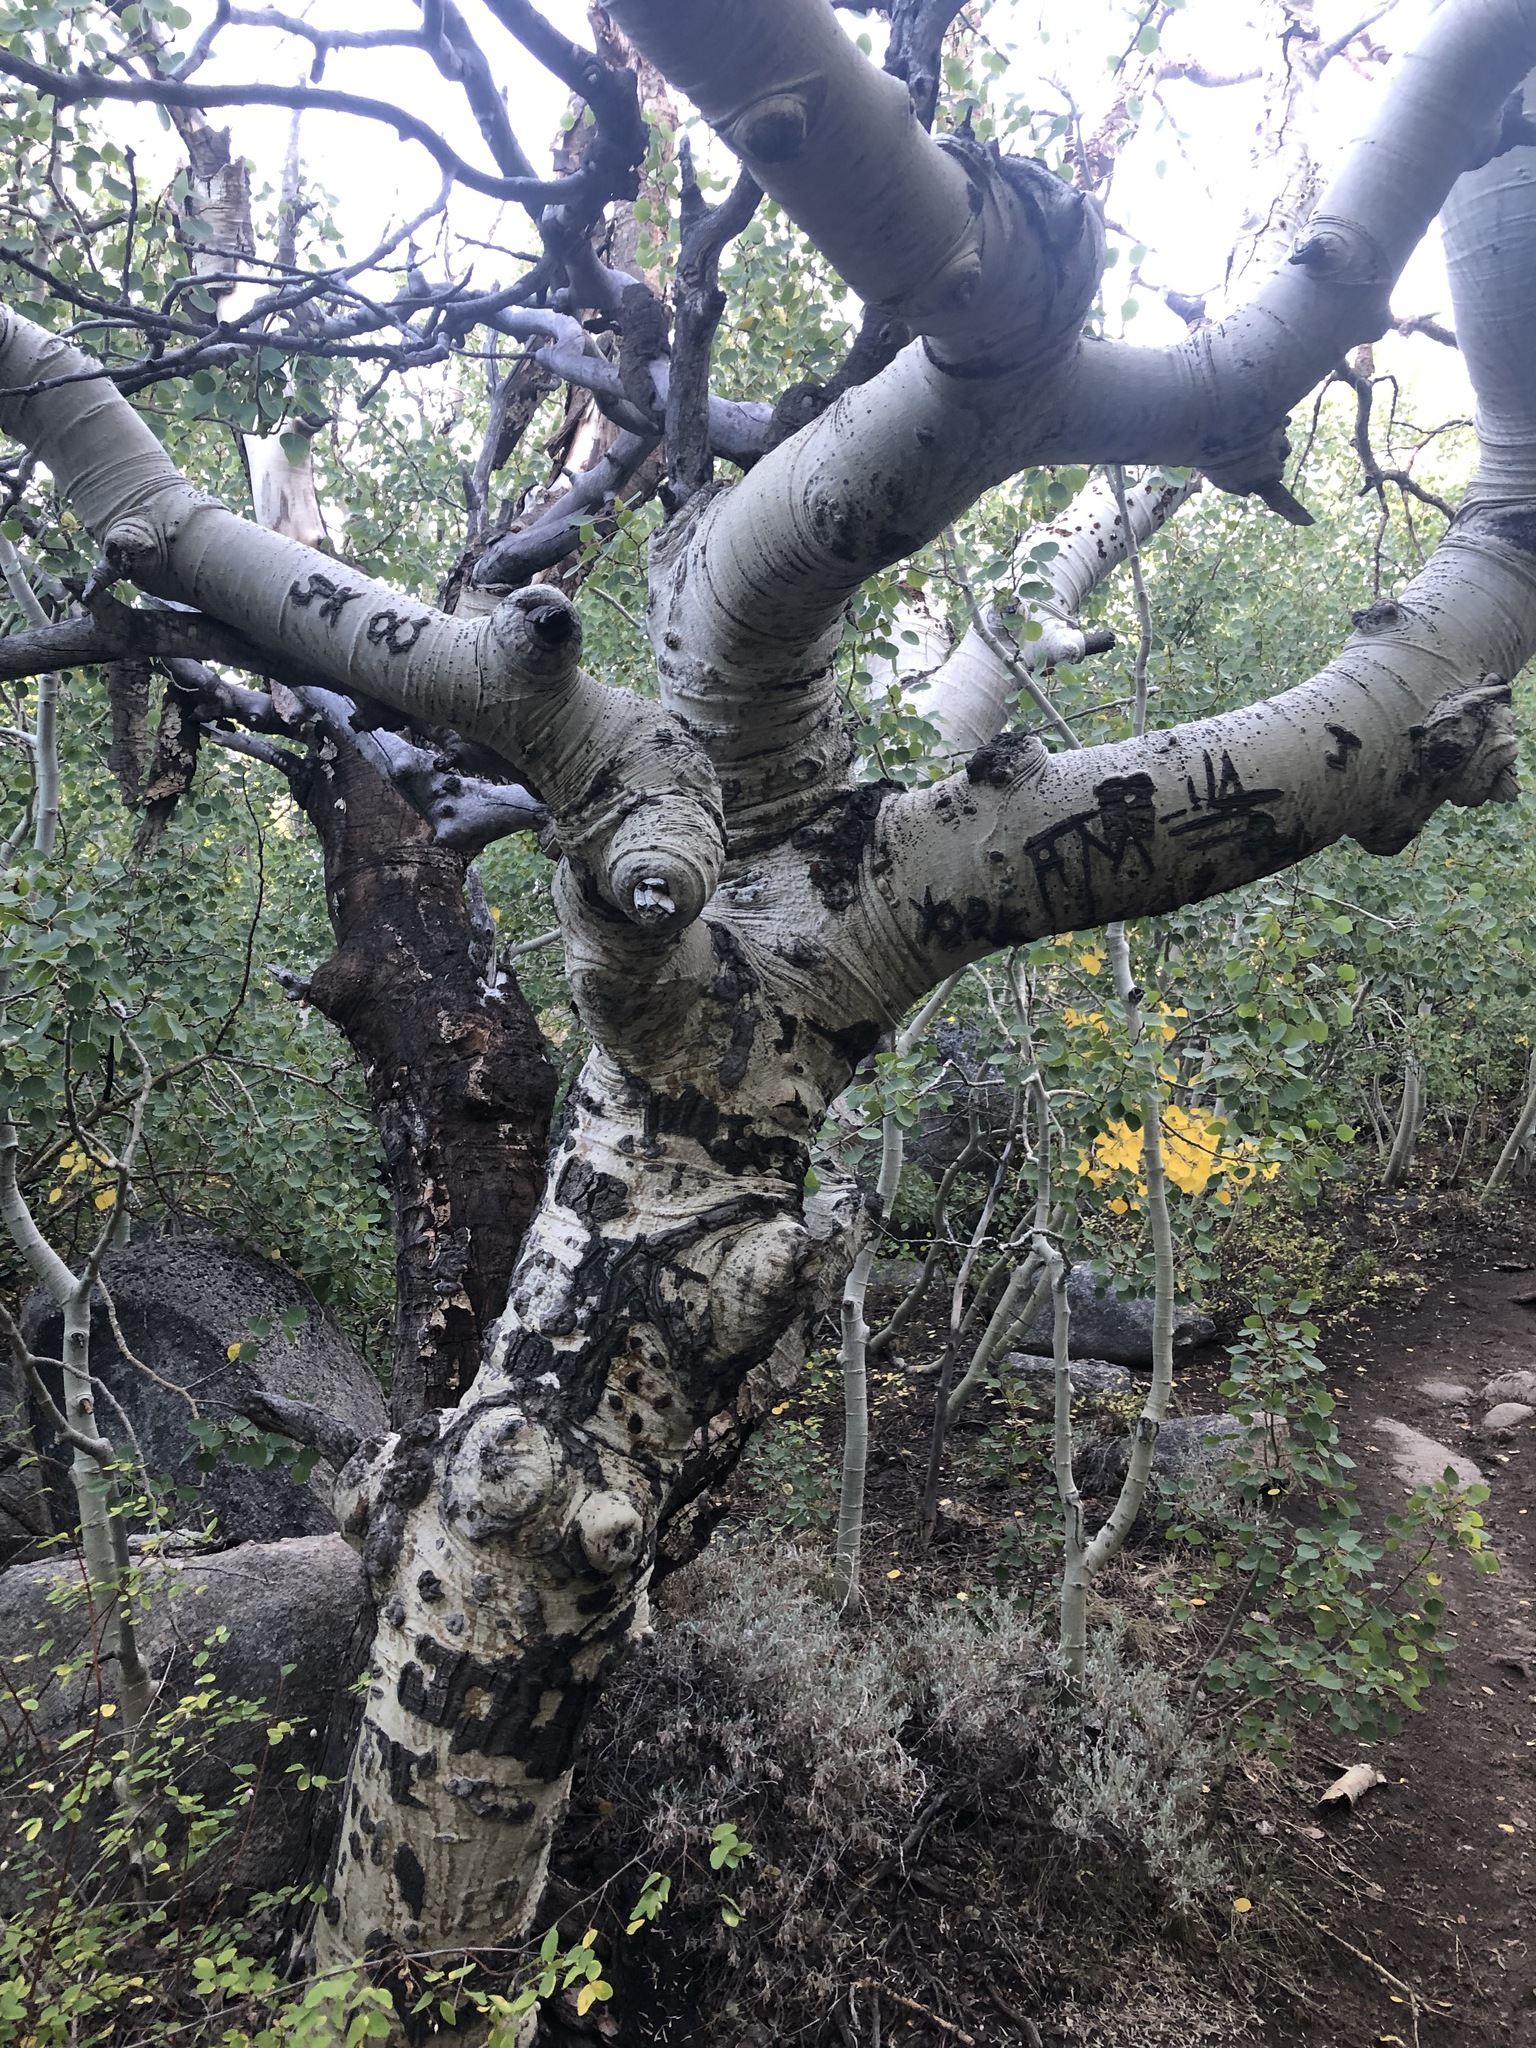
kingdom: Plantae
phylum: Tracheophyta
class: Magnoliopsida
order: Malpighiales
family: Salicaceae
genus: Populus
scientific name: Populus tremuloides
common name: Quaking aspen
